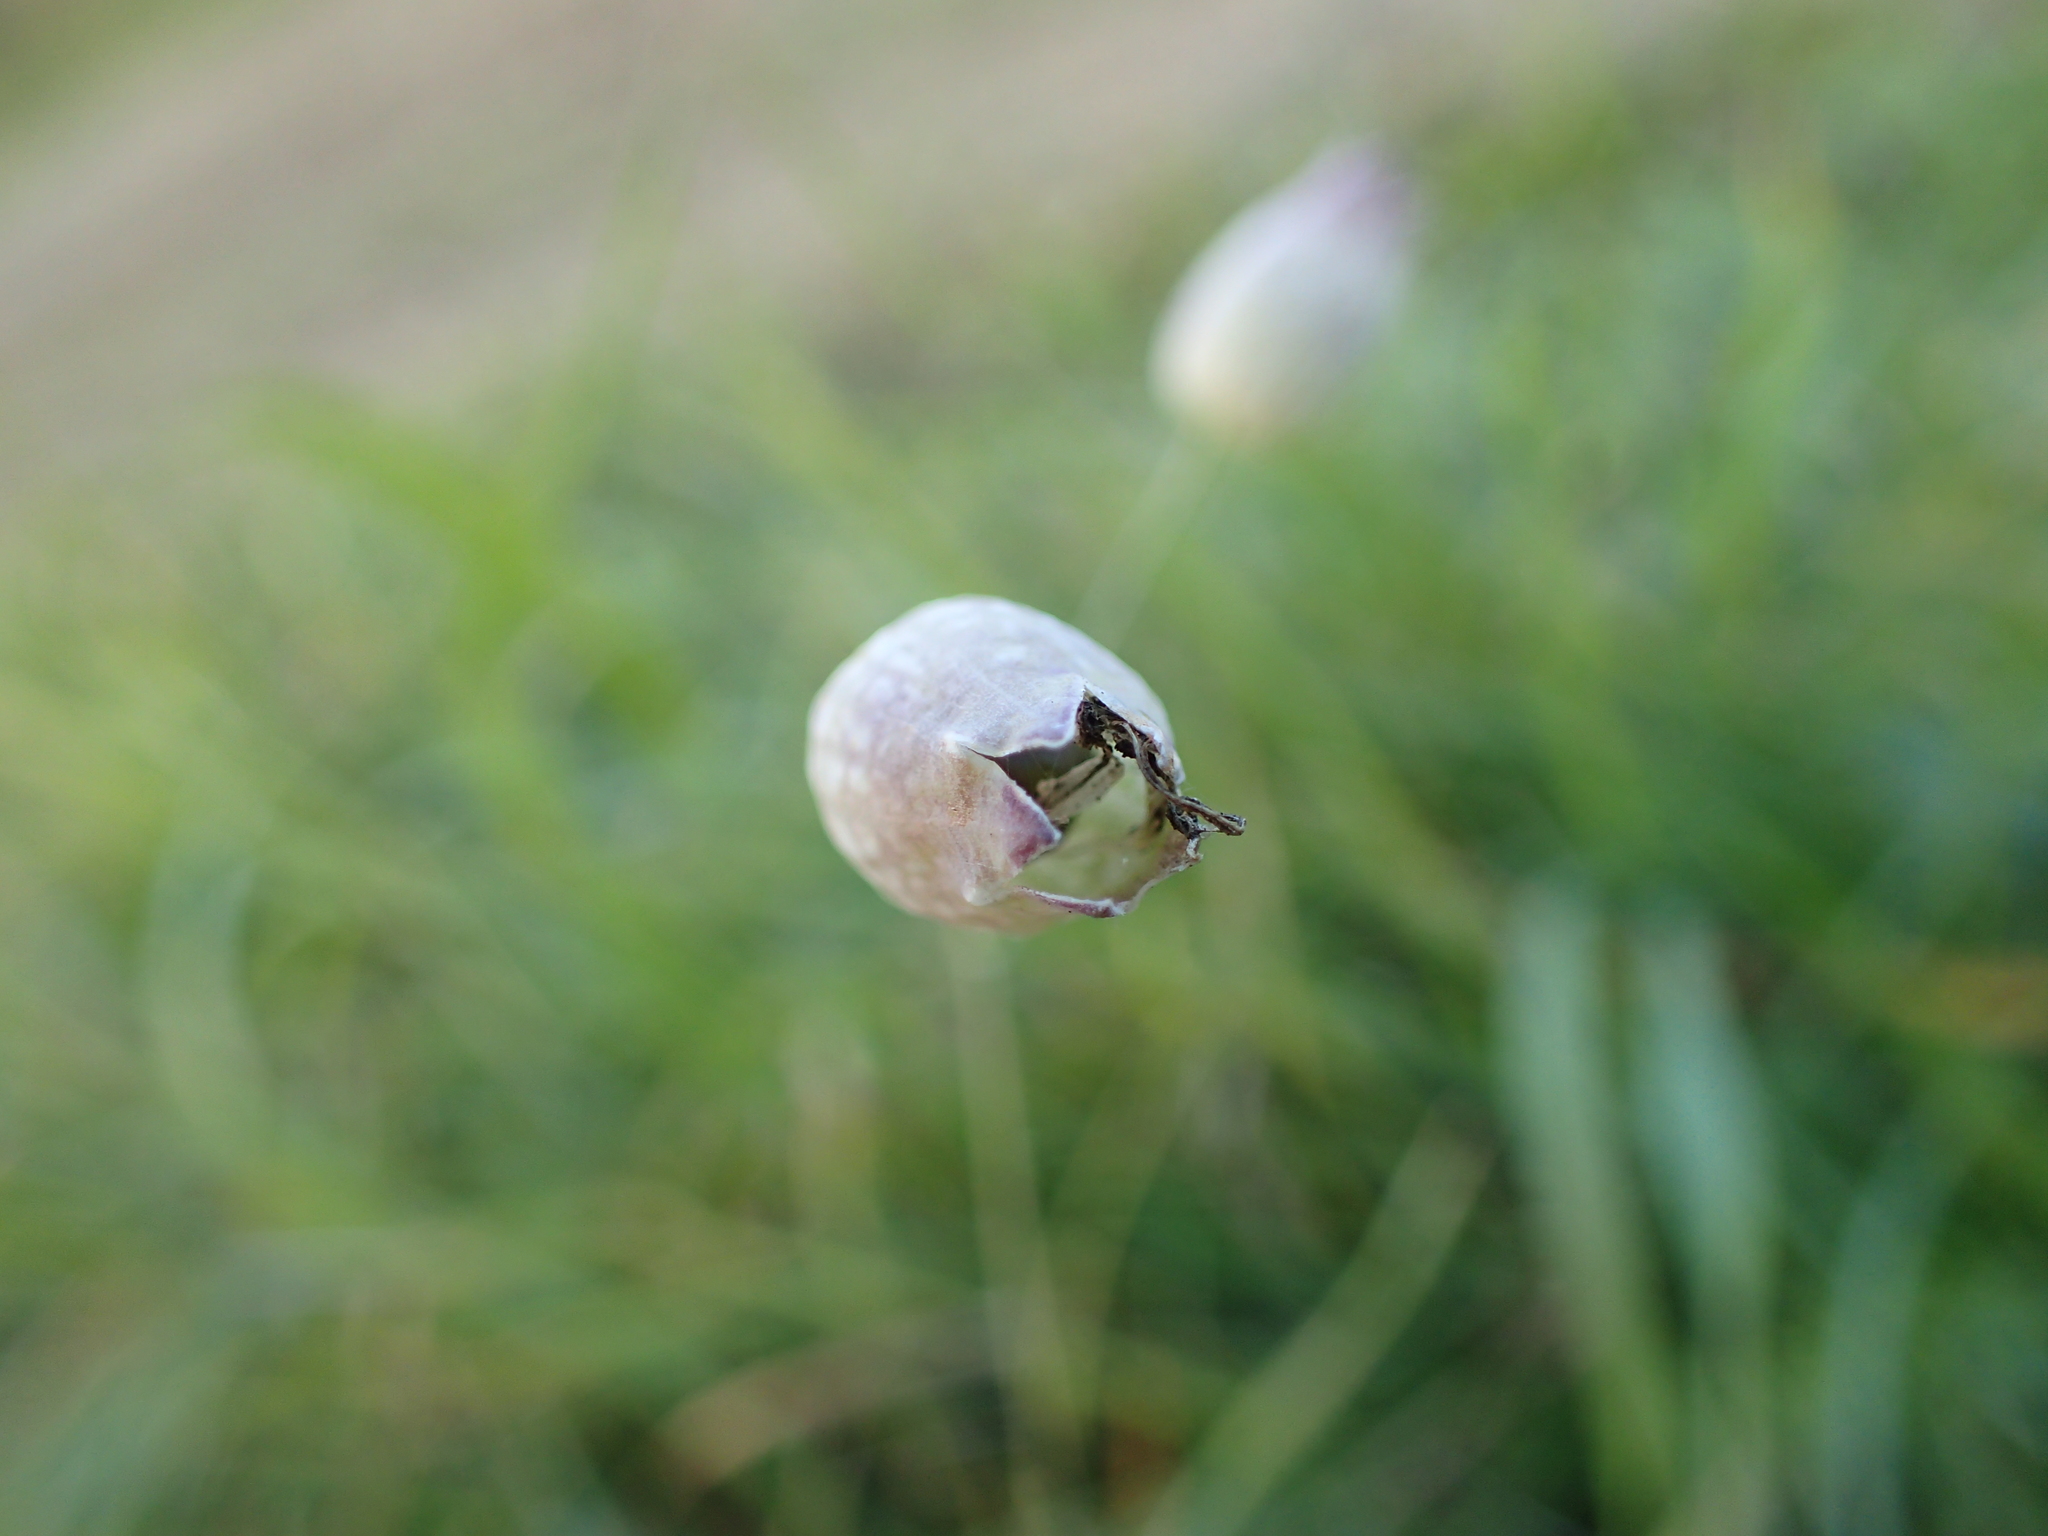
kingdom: Plantae
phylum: Tracheophyta
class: Magnoliopsida
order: Caryophyllales
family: Caryophyllaceae
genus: Silene
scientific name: Silene vulgaris
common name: Bladder campion
